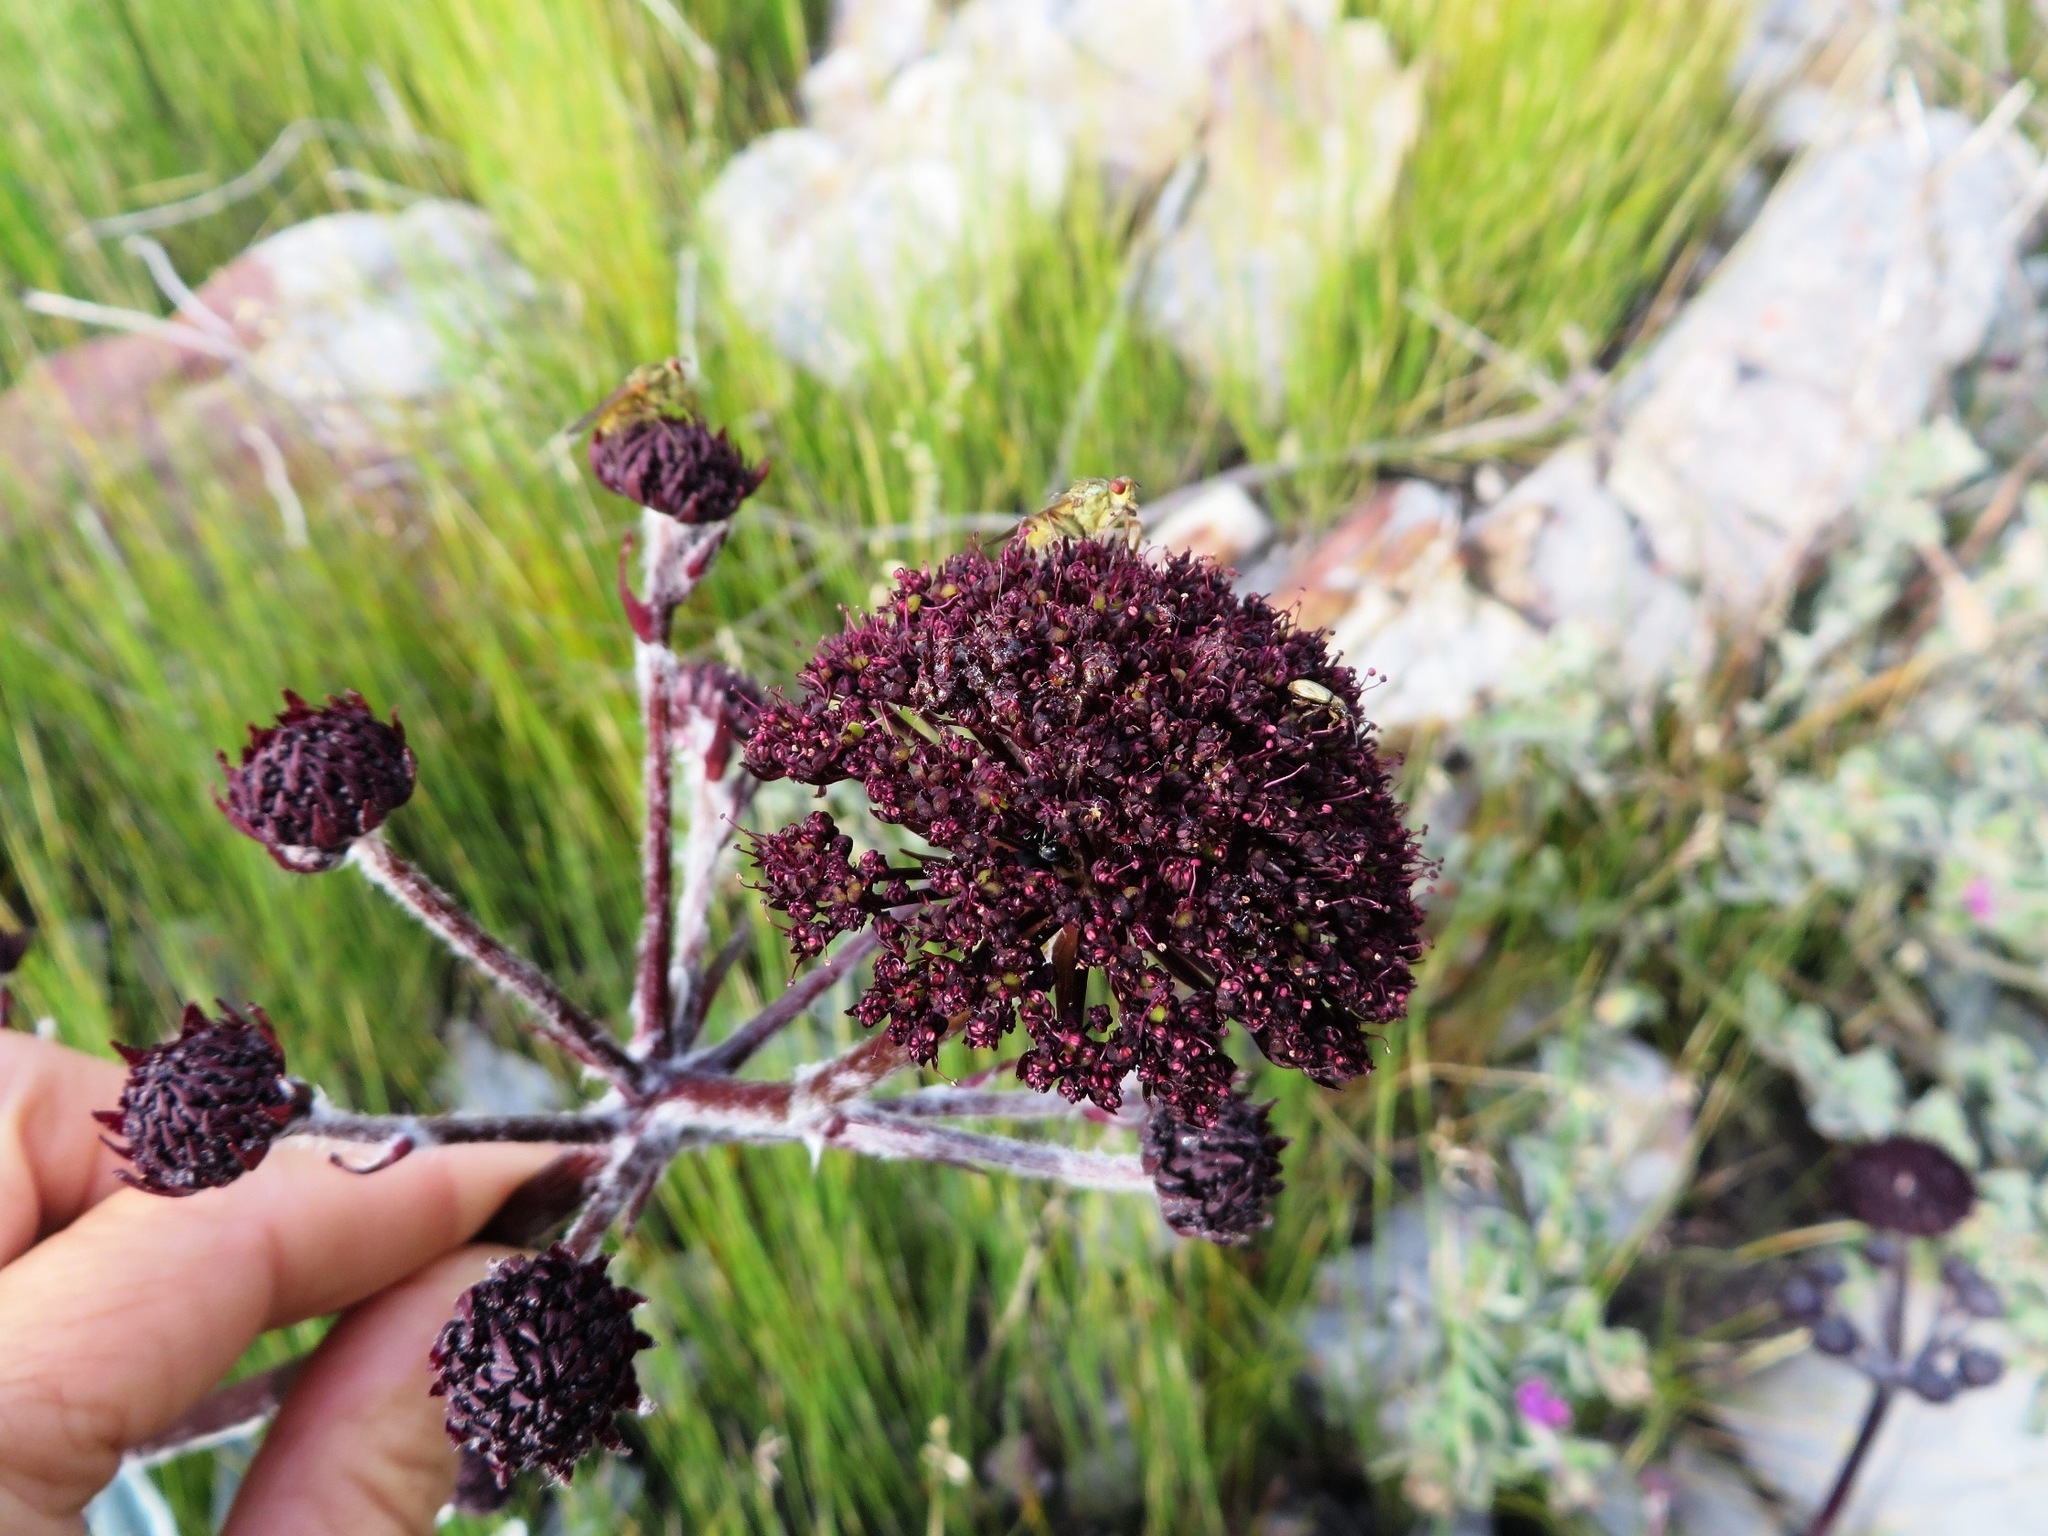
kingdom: Plantae
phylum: Tracheophyta
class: Magnoliopsida
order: Apiales
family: Apiaceae
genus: Hermas
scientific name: Hermas gigantea
